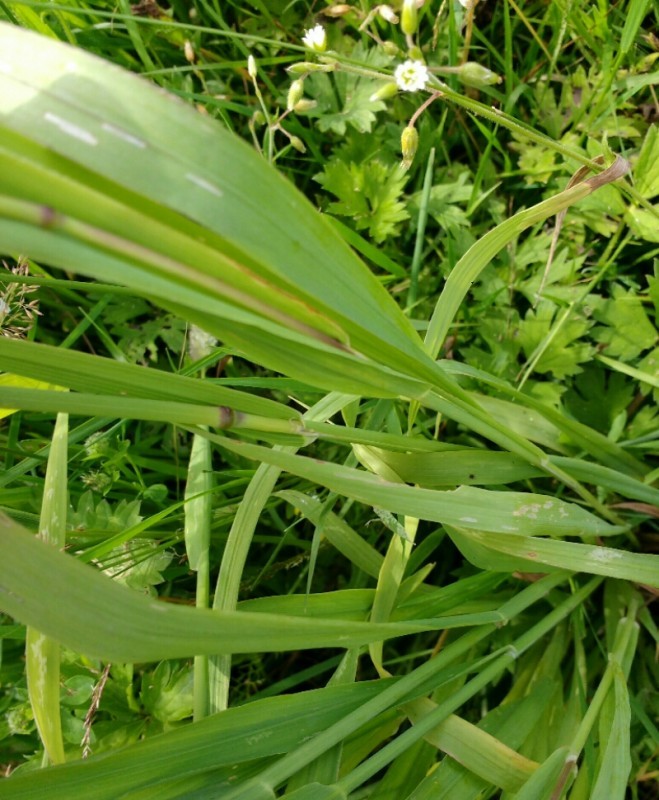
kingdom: Plantae
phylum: Tracheophyta
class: Liliopsida
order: Poales
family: Poaceae
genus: Phleum
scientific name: Phleum pratense
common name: Timothy grass
